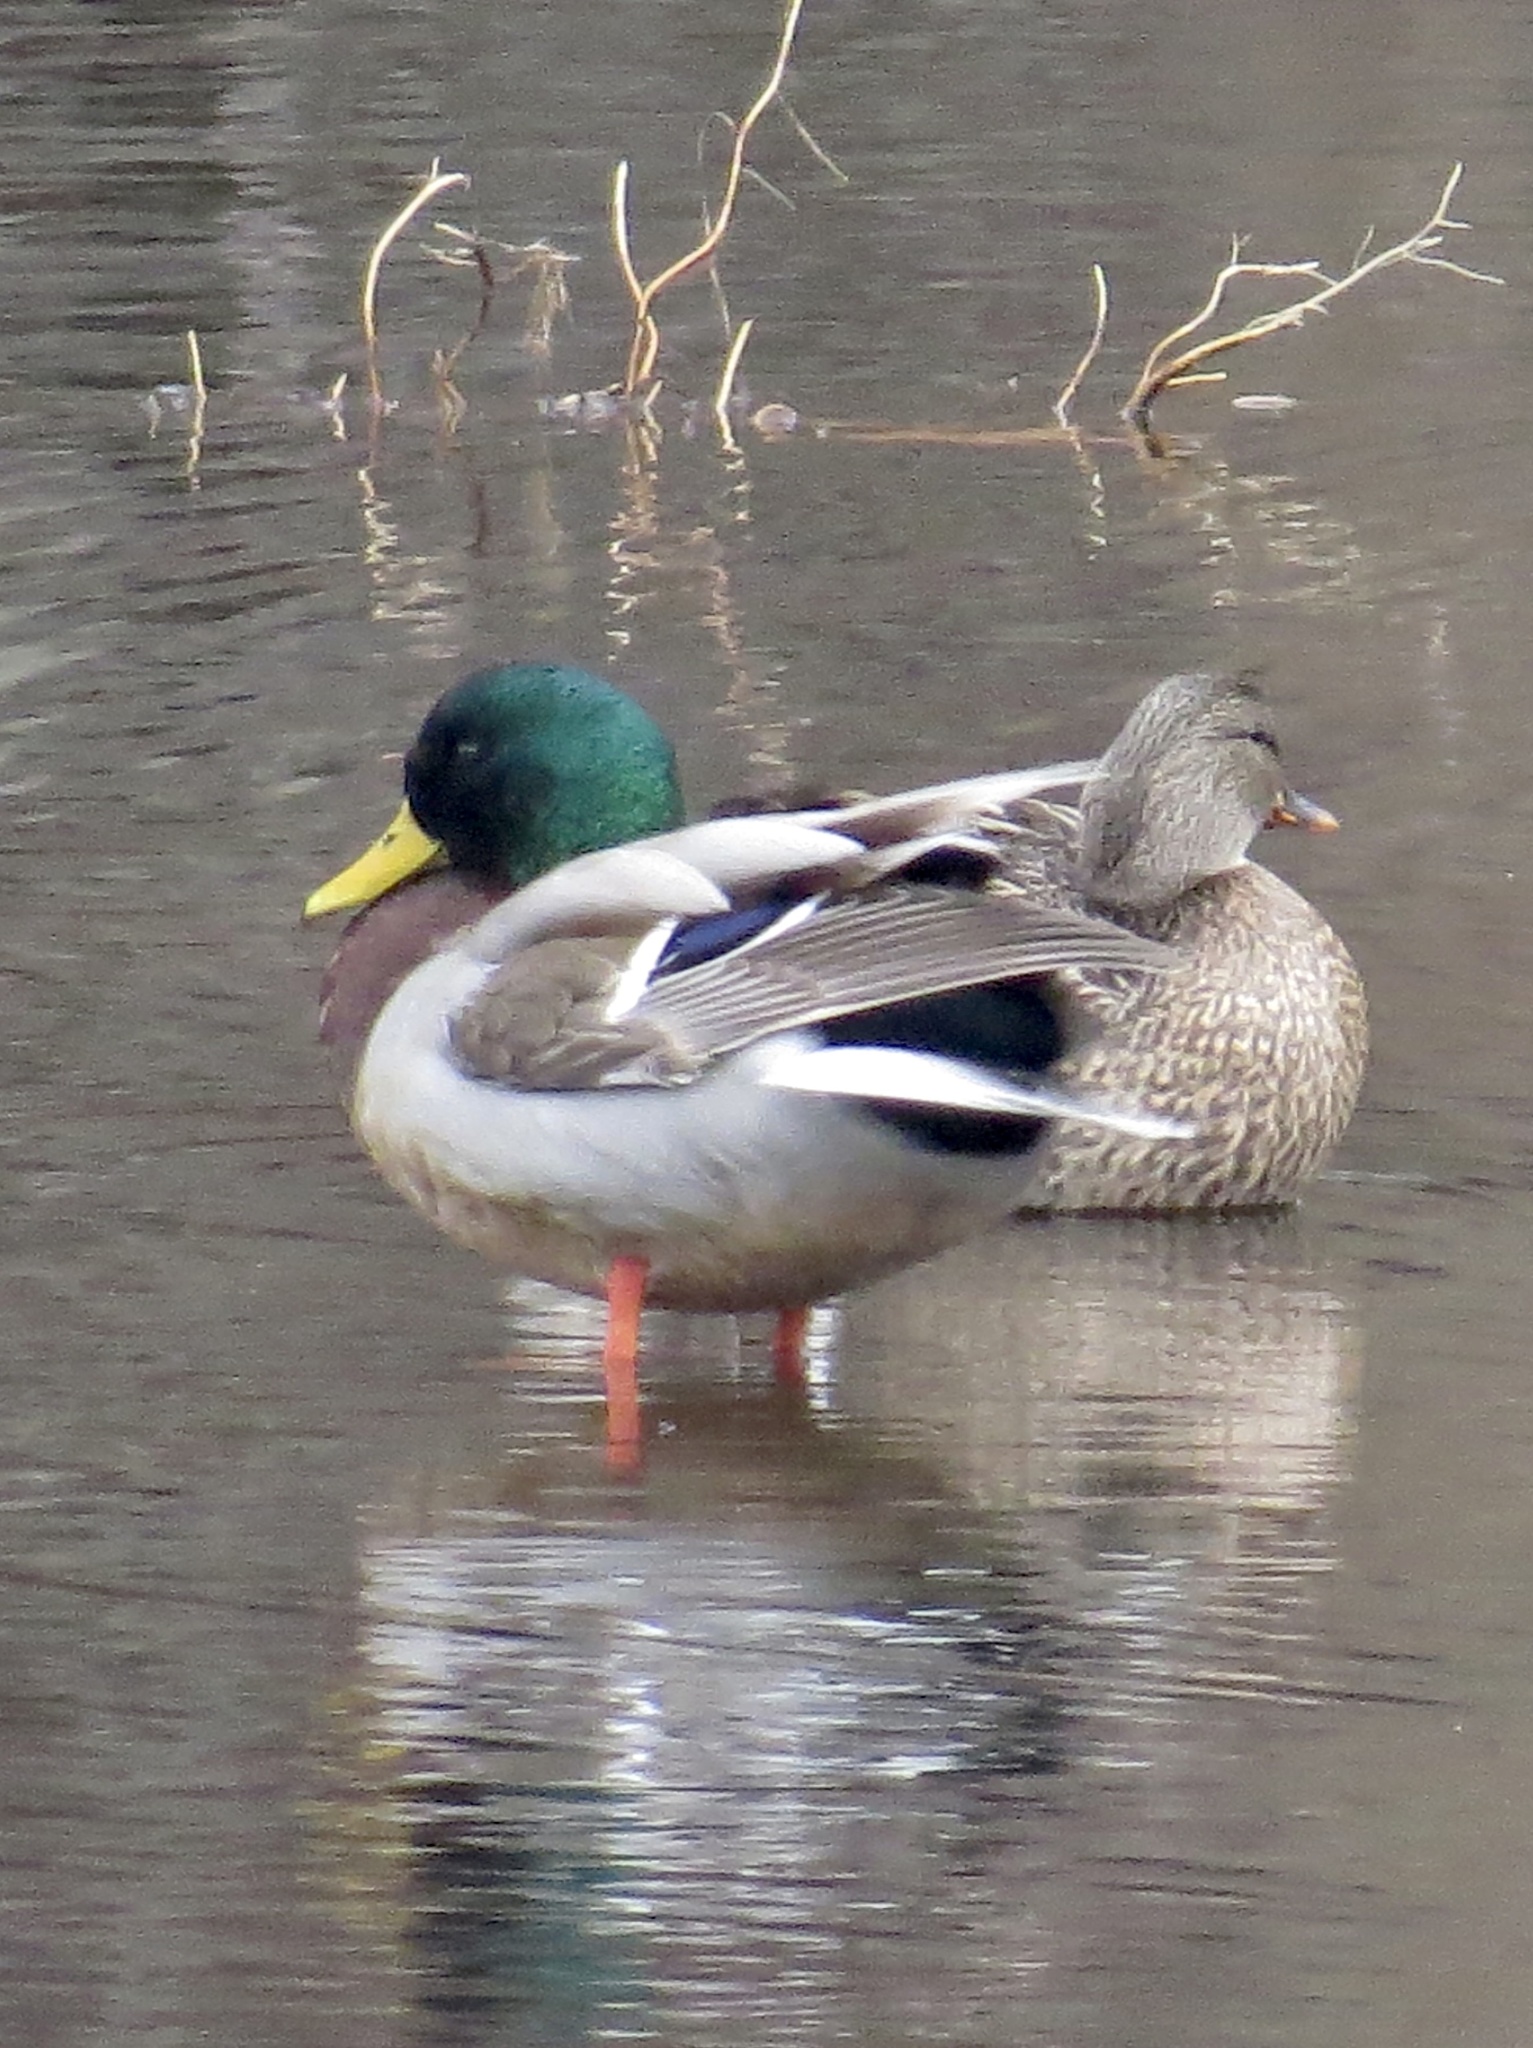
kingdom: Animalia
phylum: Chordata
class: Aves
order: Anseriformes
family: Anatidae
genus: Anas
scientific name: Anas platyrhynchos
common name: Mallard
